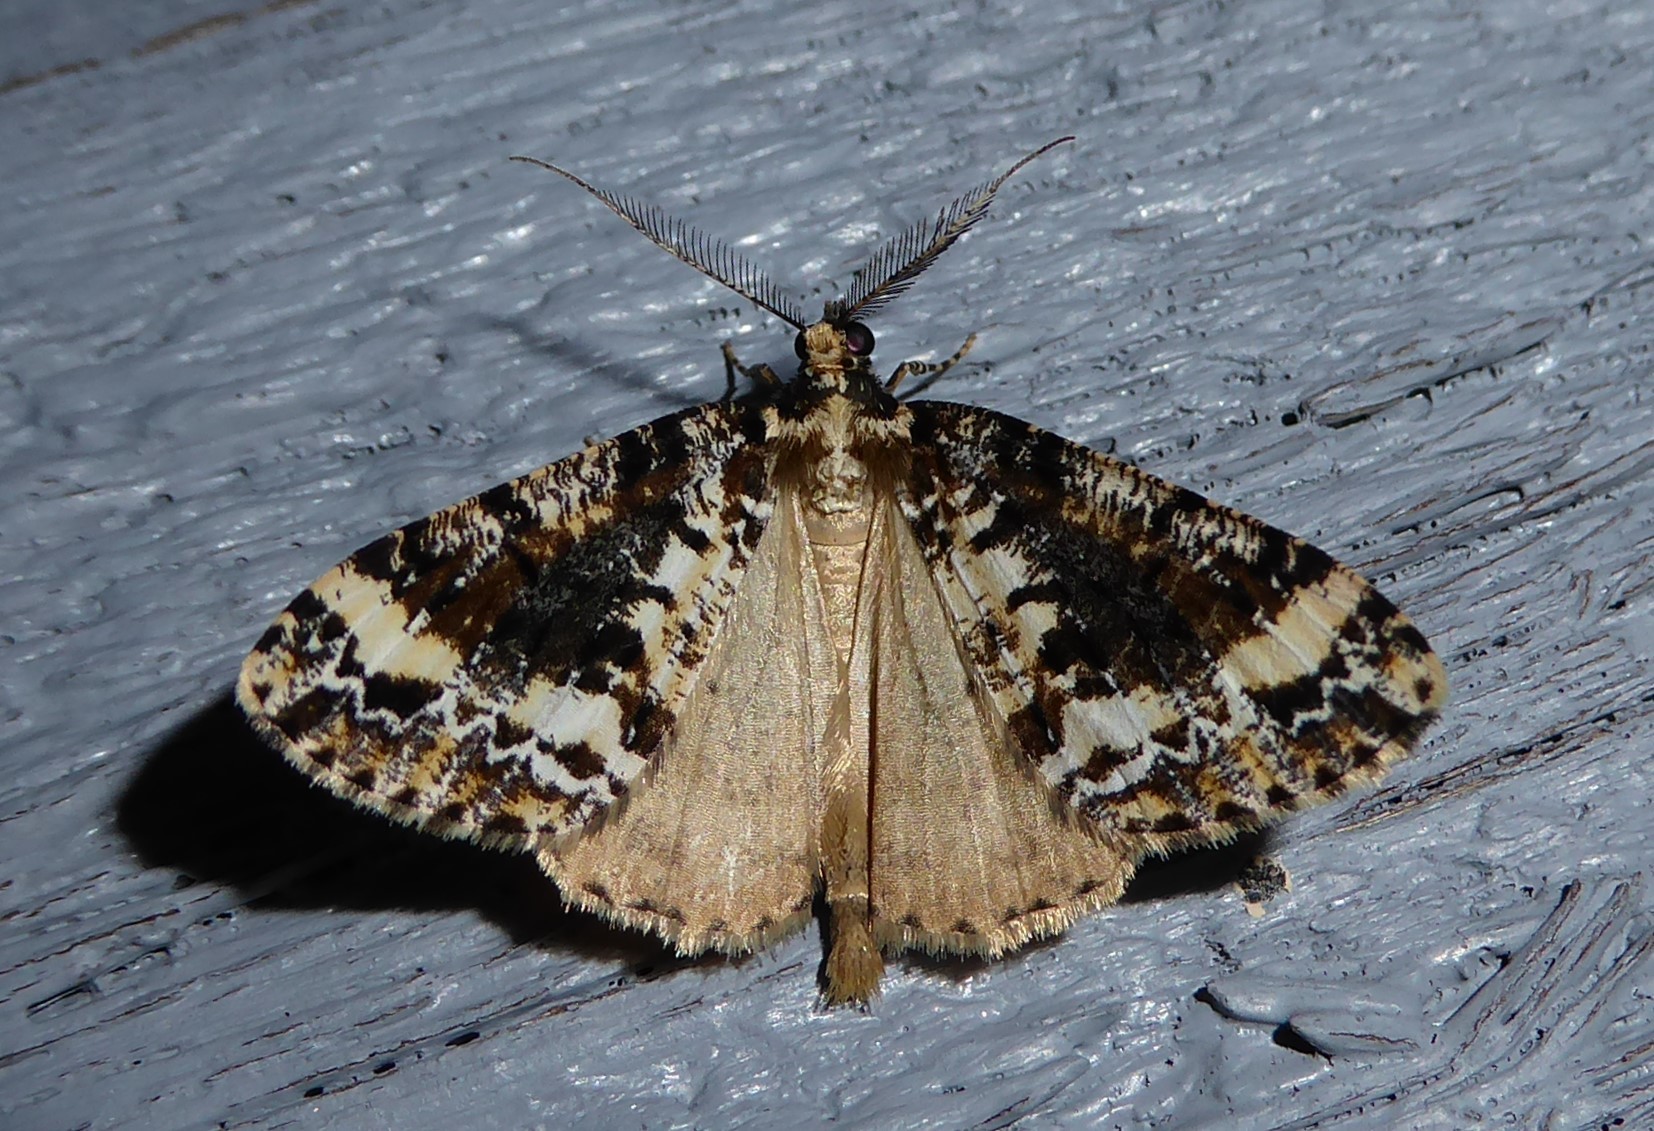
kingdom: Animalia
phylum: Arthropoda
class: Insecta
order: Lepidoptera
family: Geometridae
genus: Pseudocoremia
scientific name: Pseudocoremia leucelaea
